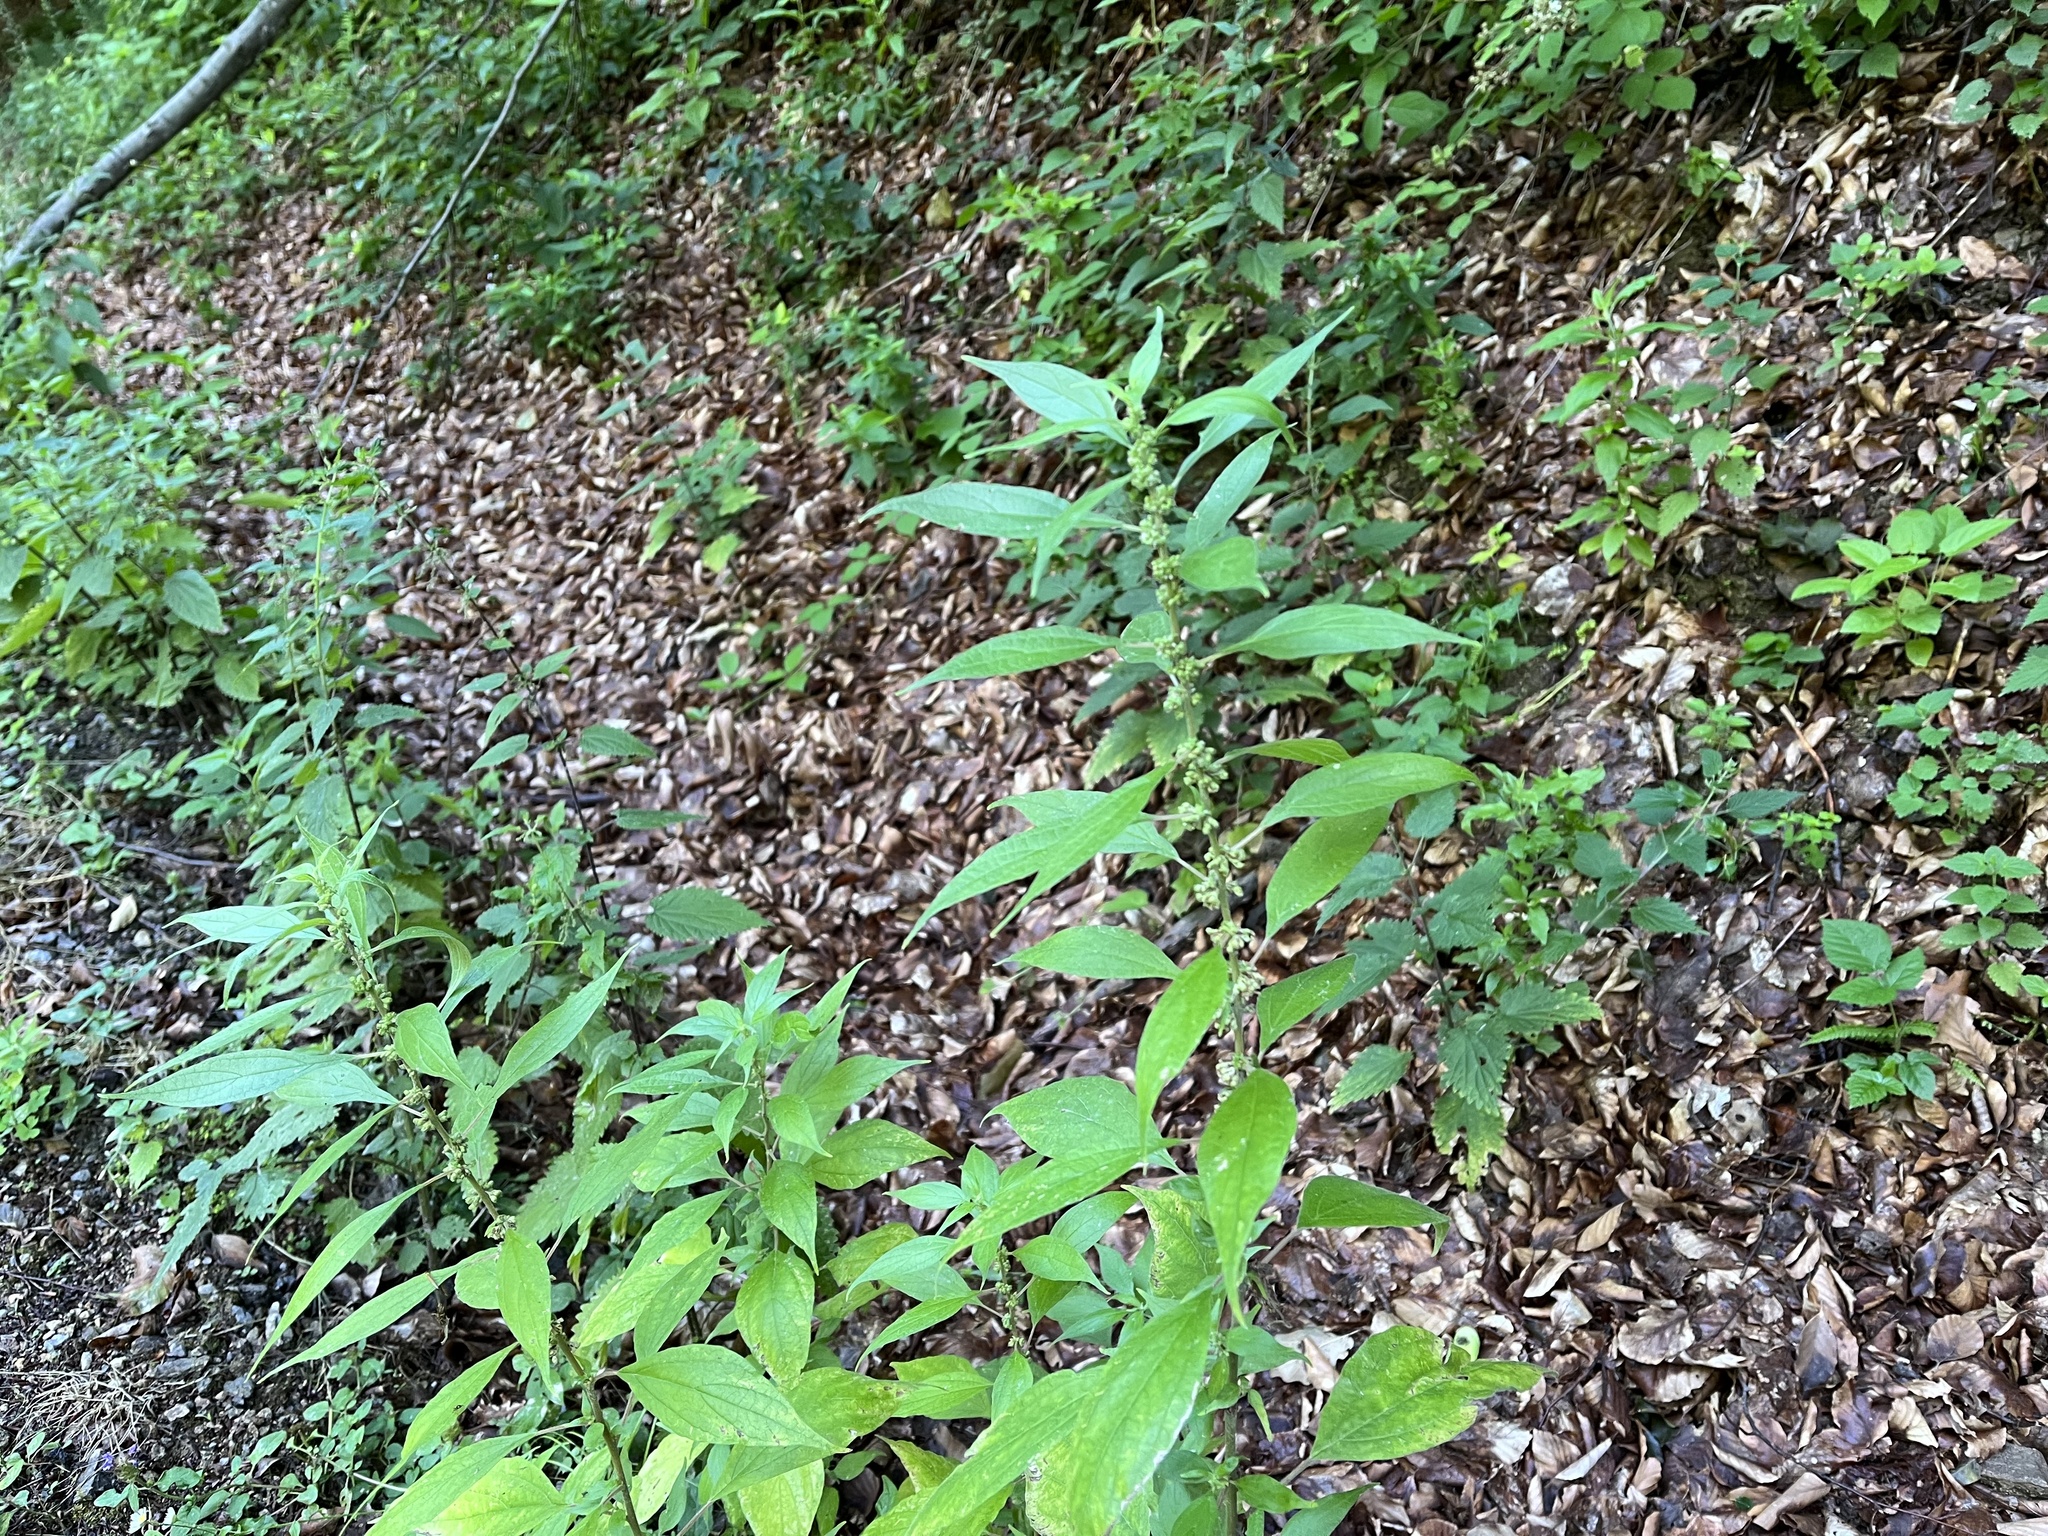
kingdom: Plantae
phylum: Tracheophyta
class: Magnoliopsida
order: Rosales
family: Urticaceae
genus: Parietaria
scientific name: Parietaria officinalis
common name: Eastern pellitory-of-the-wall
